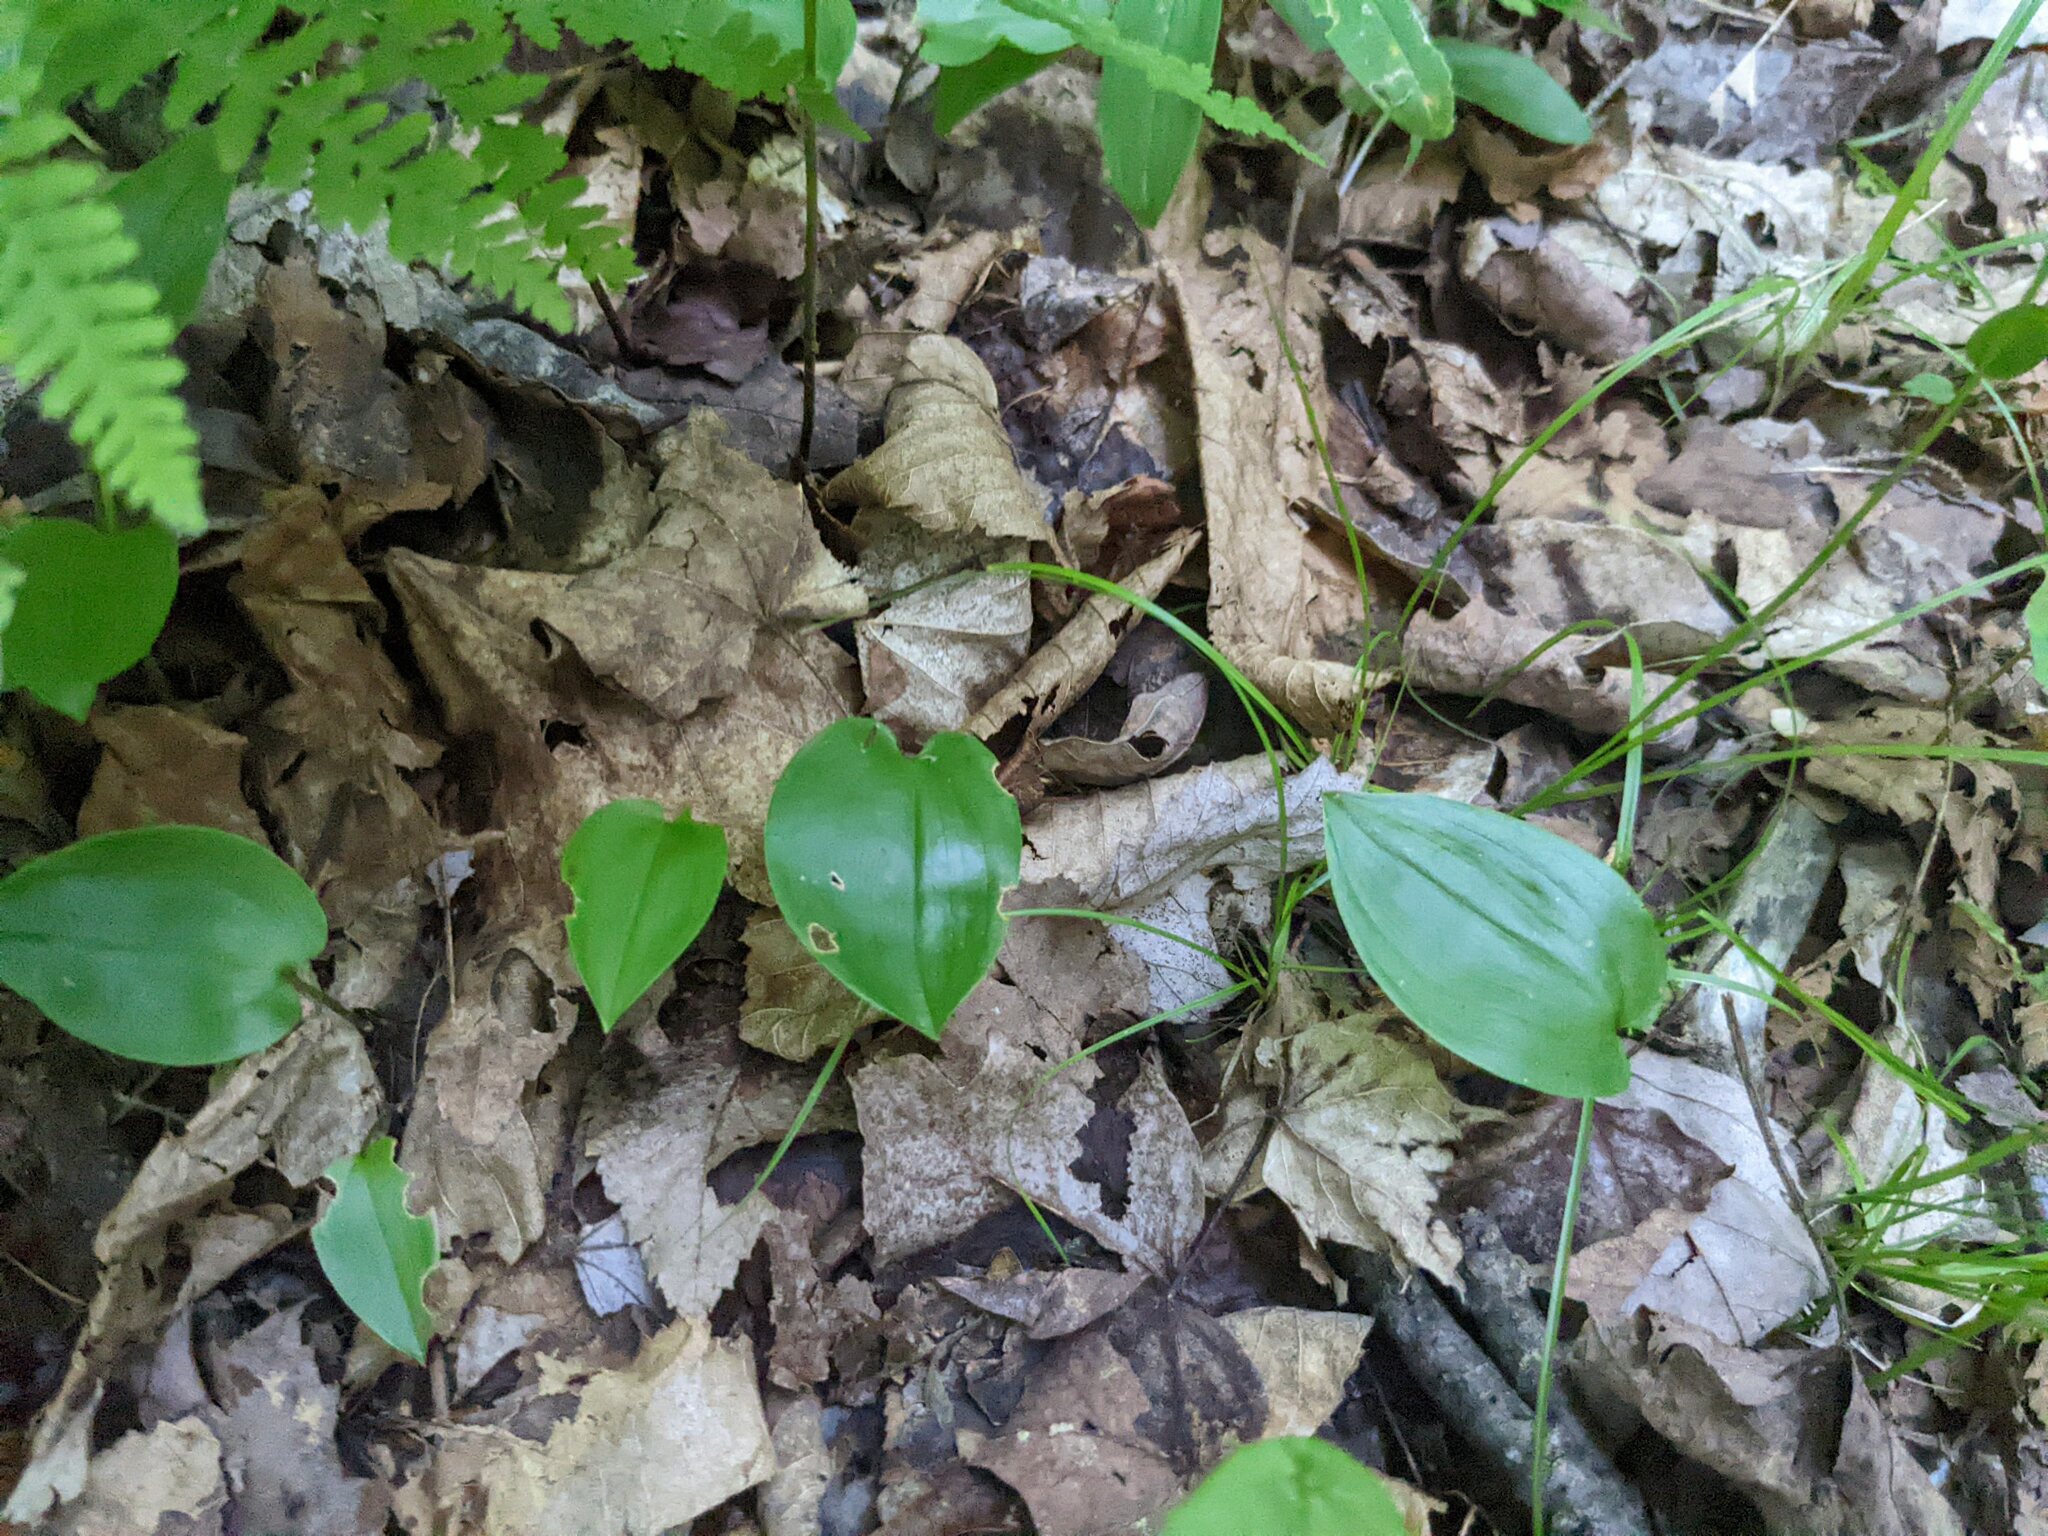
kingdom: Plantae
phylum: Tracheophyta
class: Liliopsida
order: Asparagales
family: Asparagaceae
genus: Maianthemum
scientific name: Maianthemum canadense
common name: False lily-of-the-valley
